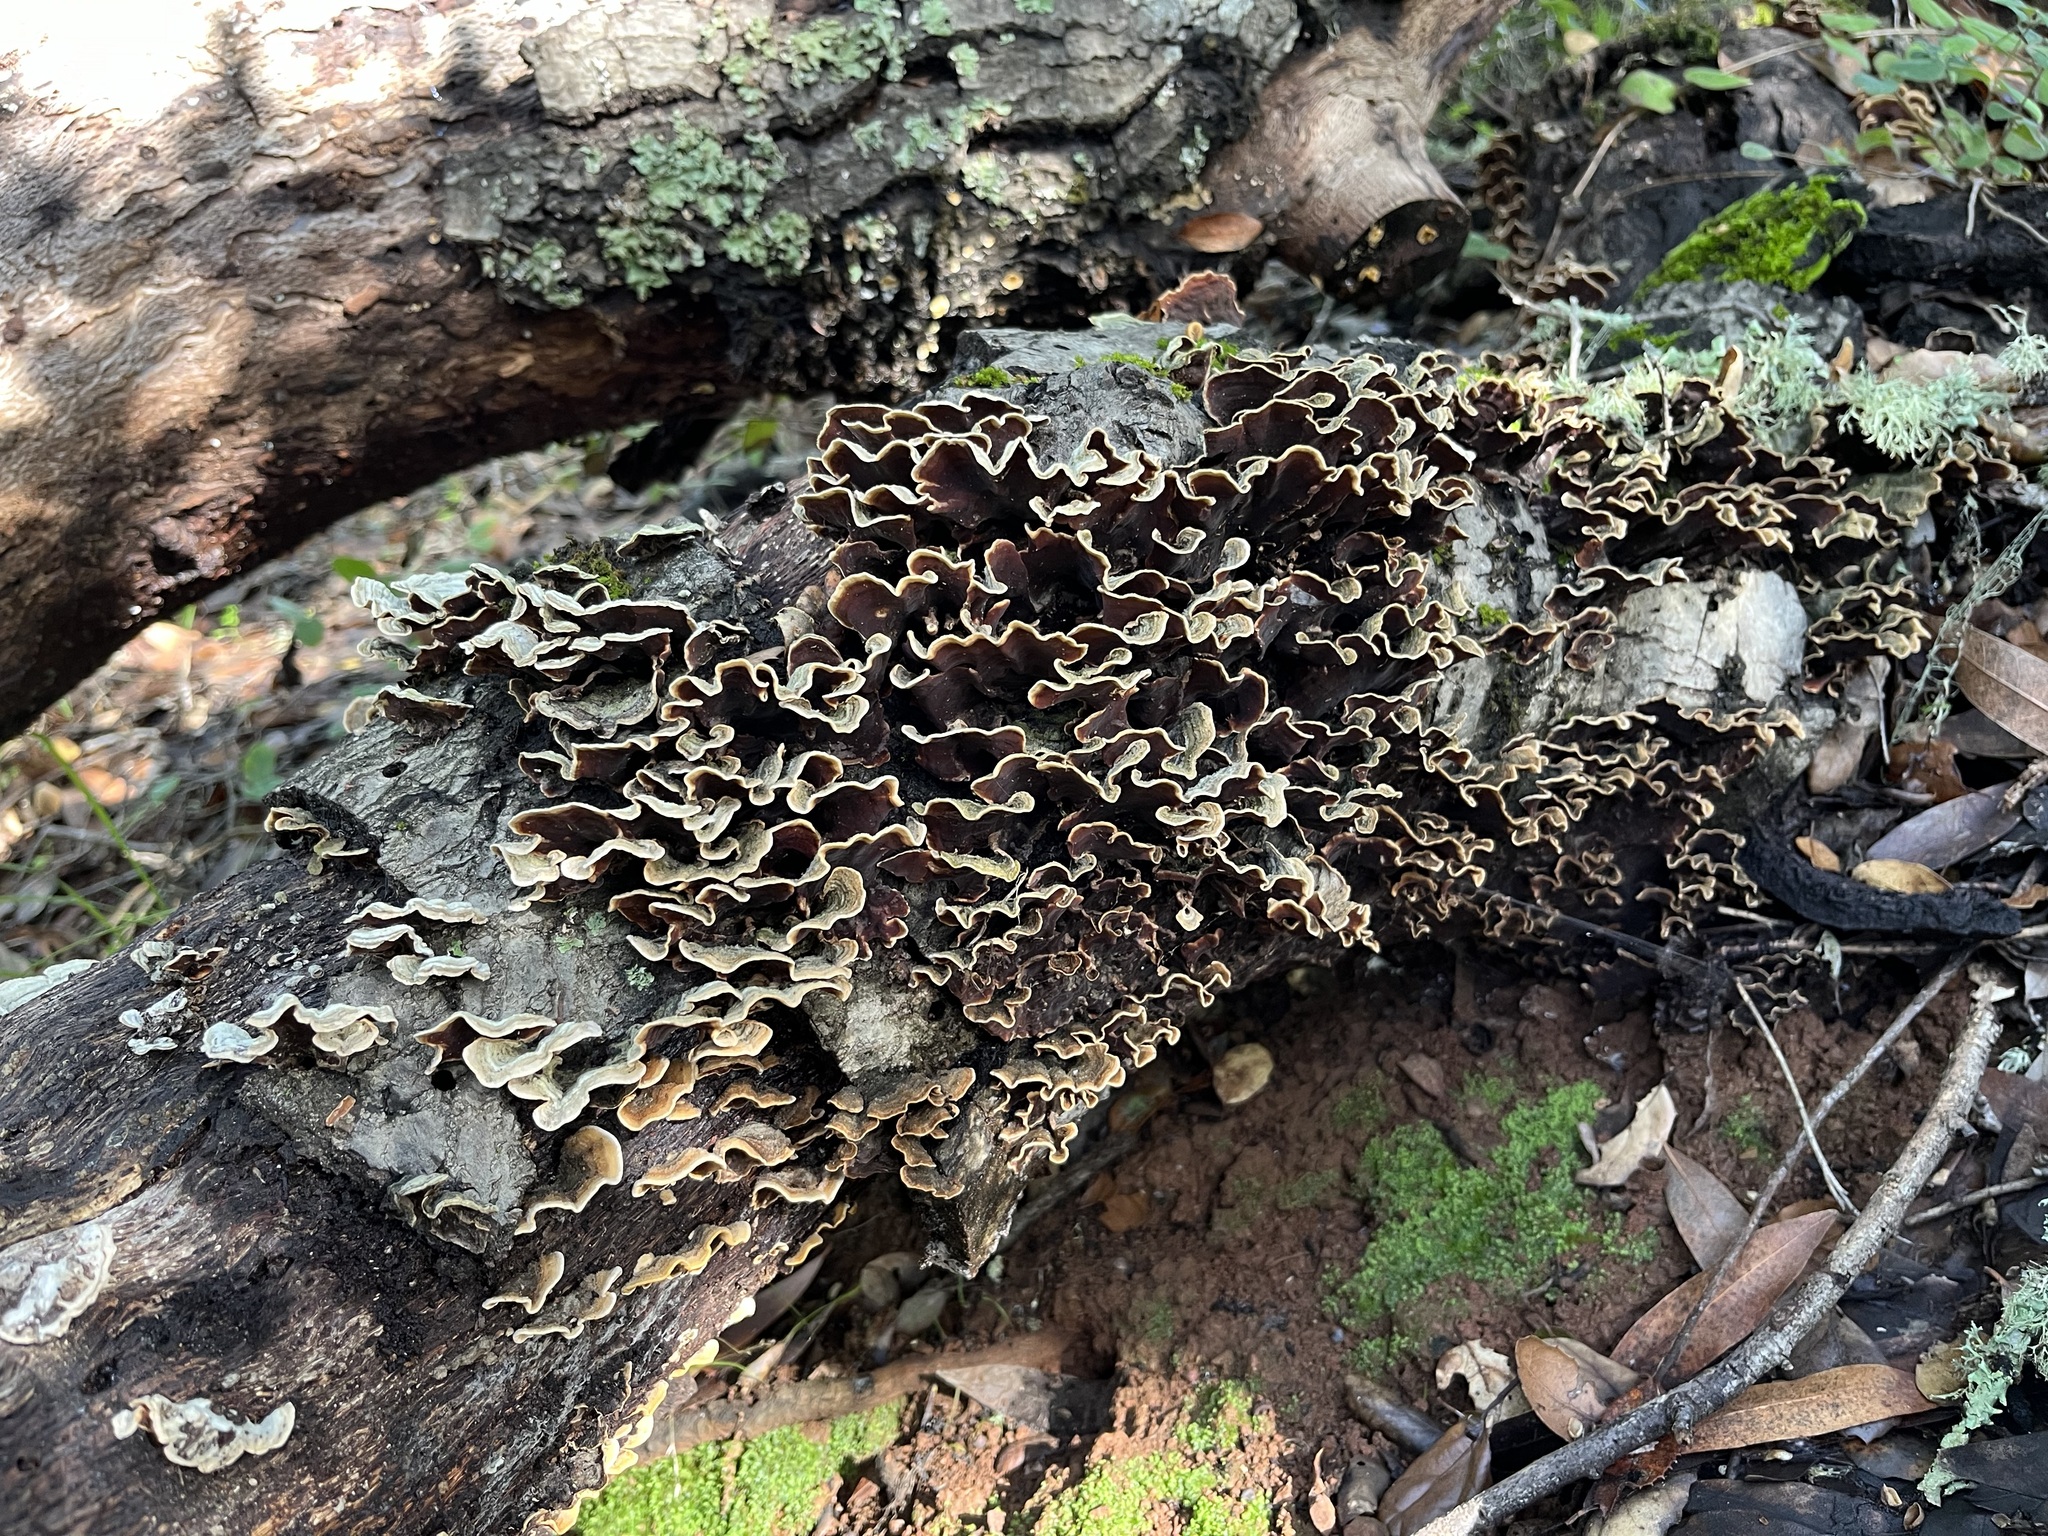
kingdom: Fungi
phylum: Basidiomycota
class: Agaricomycetes
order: Russulales
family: Stereaceae
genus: Stereum
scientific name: Stereum hirsutum
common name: Hairy curtain crust
